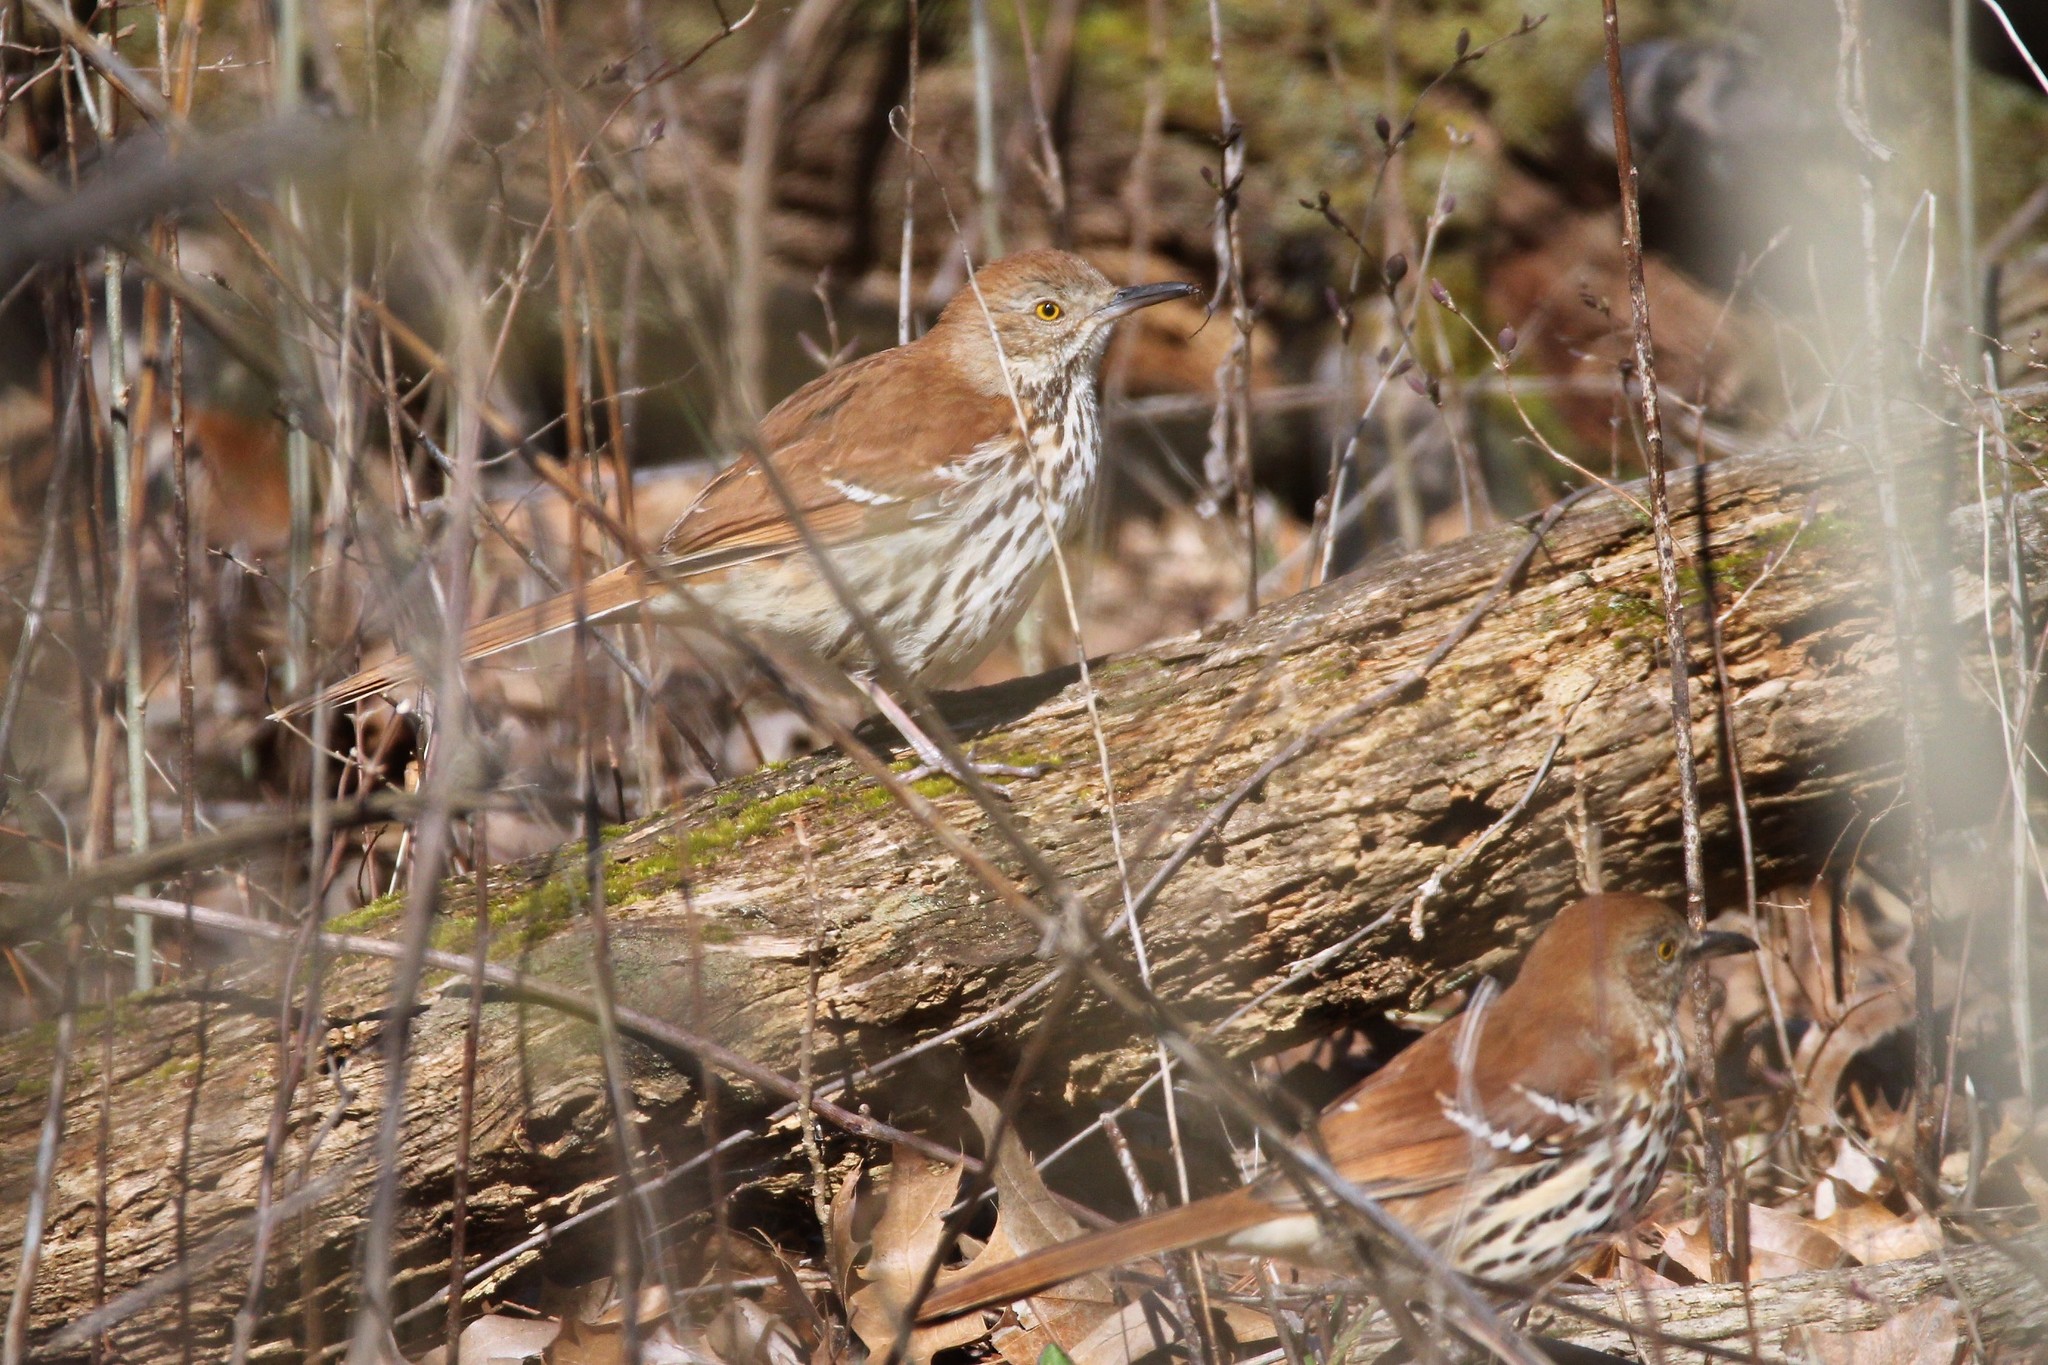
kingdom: Animalia
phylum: Chordata
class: Aves
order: Passeriformes
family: Mimidae
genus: Toxostoma
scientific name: Toxostoma rufum
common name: Brown thrasher
